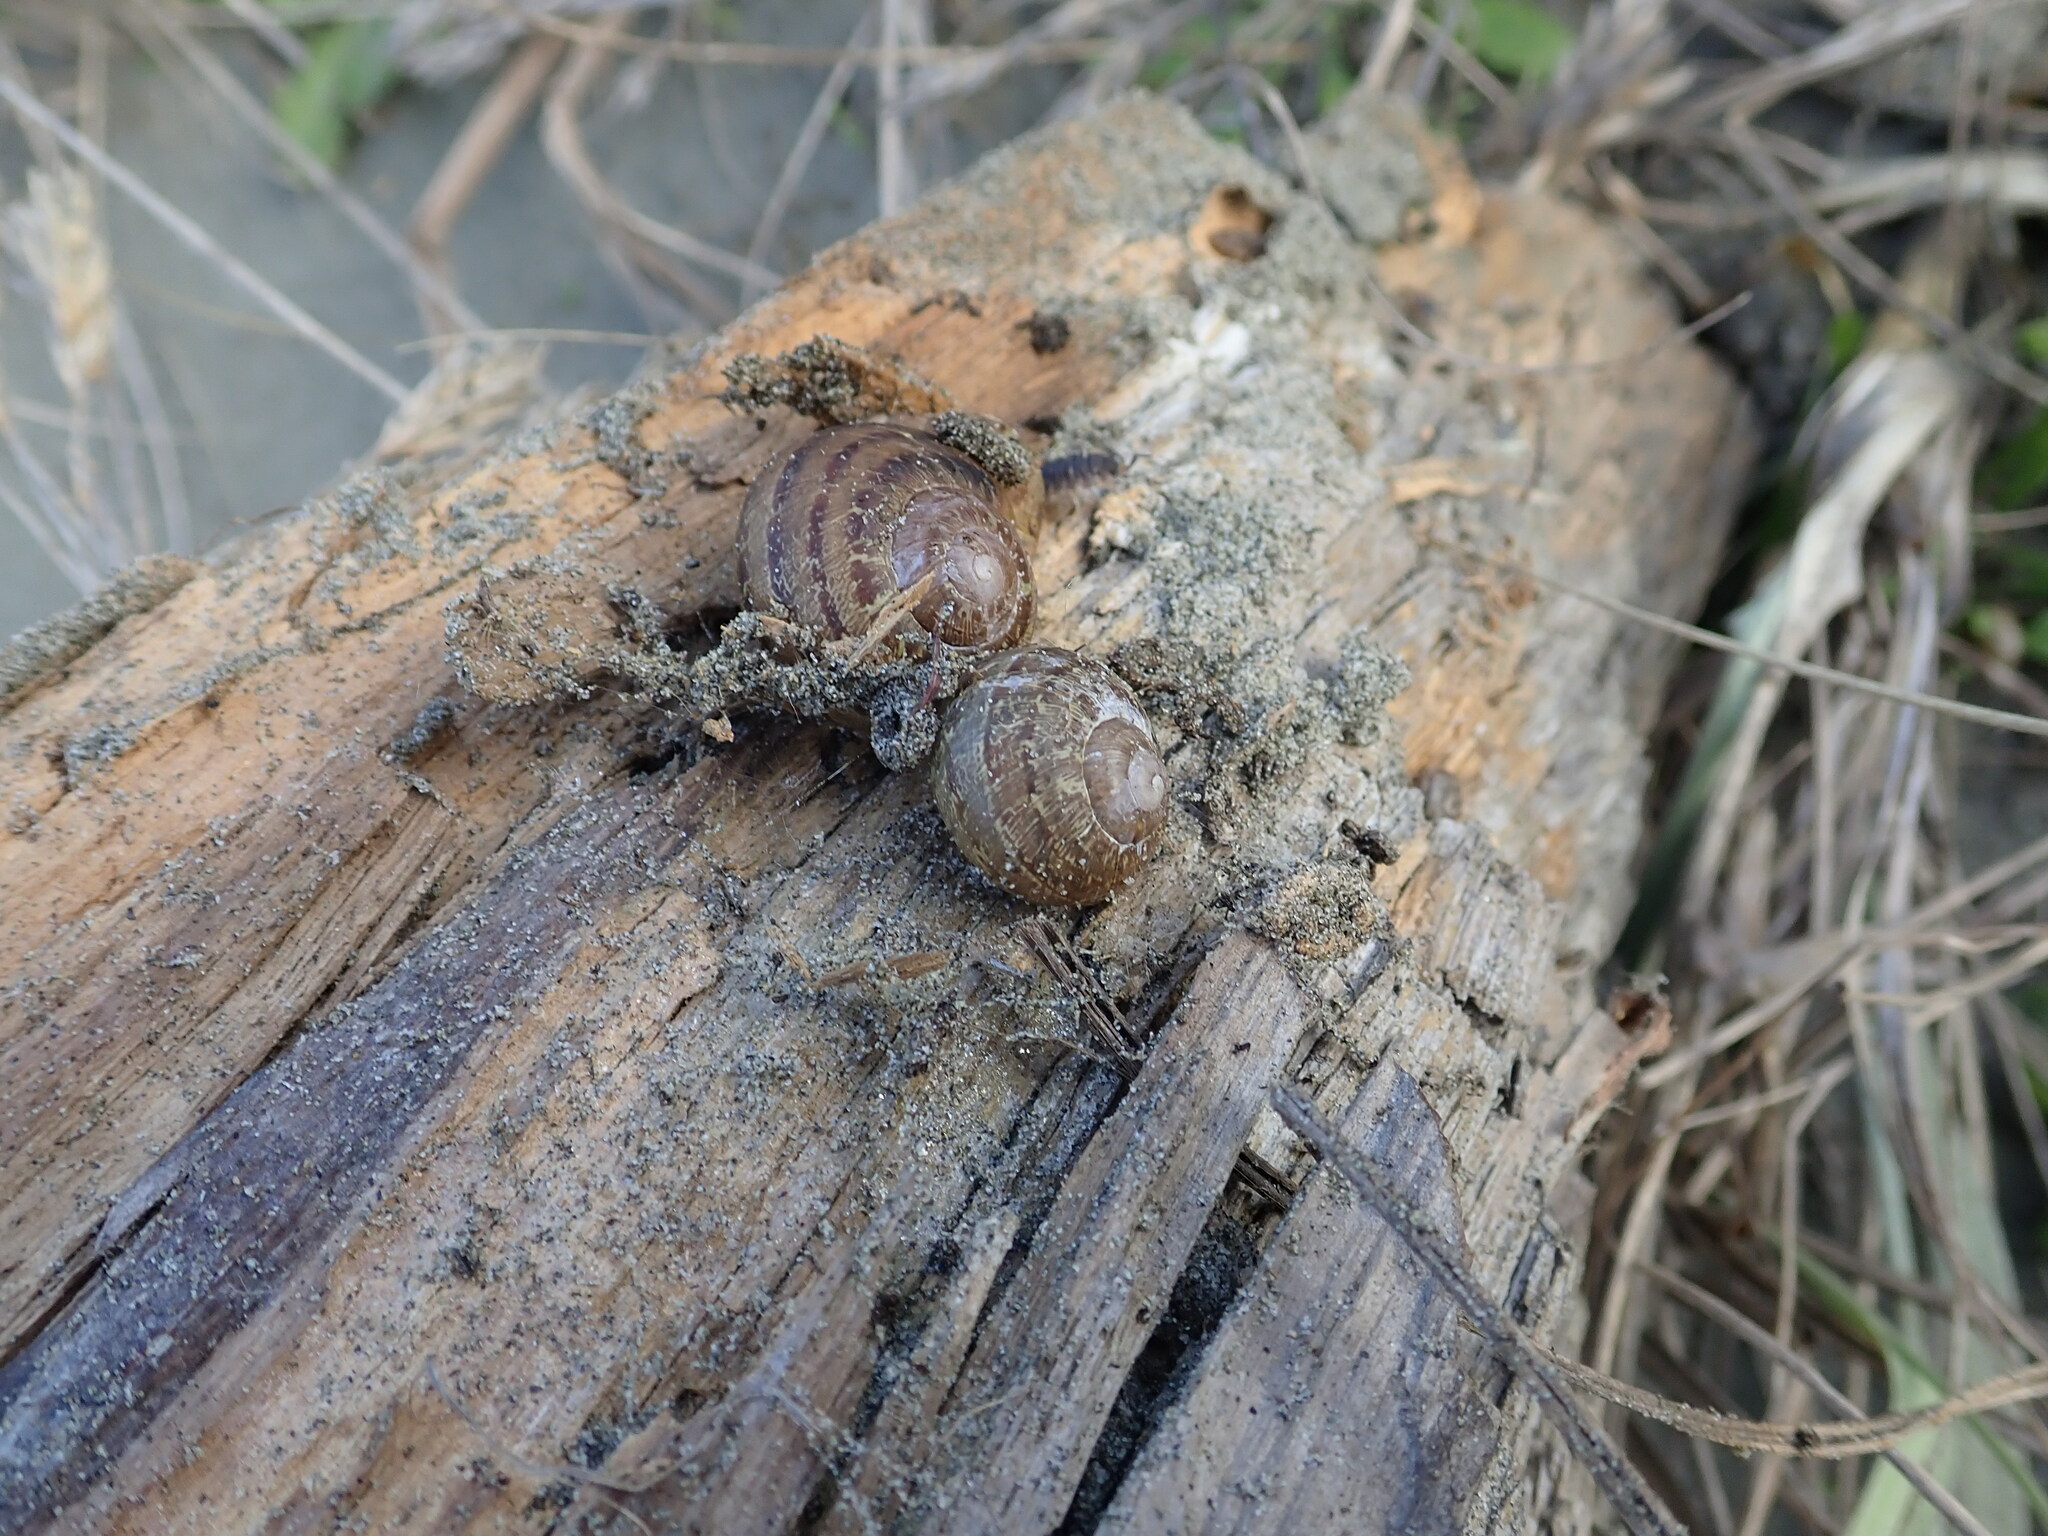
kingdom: Animalia
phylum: Mollusca
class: Gastropoda
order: Stylommatophora
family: Helicidae
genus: Cornu
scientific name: Cornu aspersum
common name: Brown garden snail
